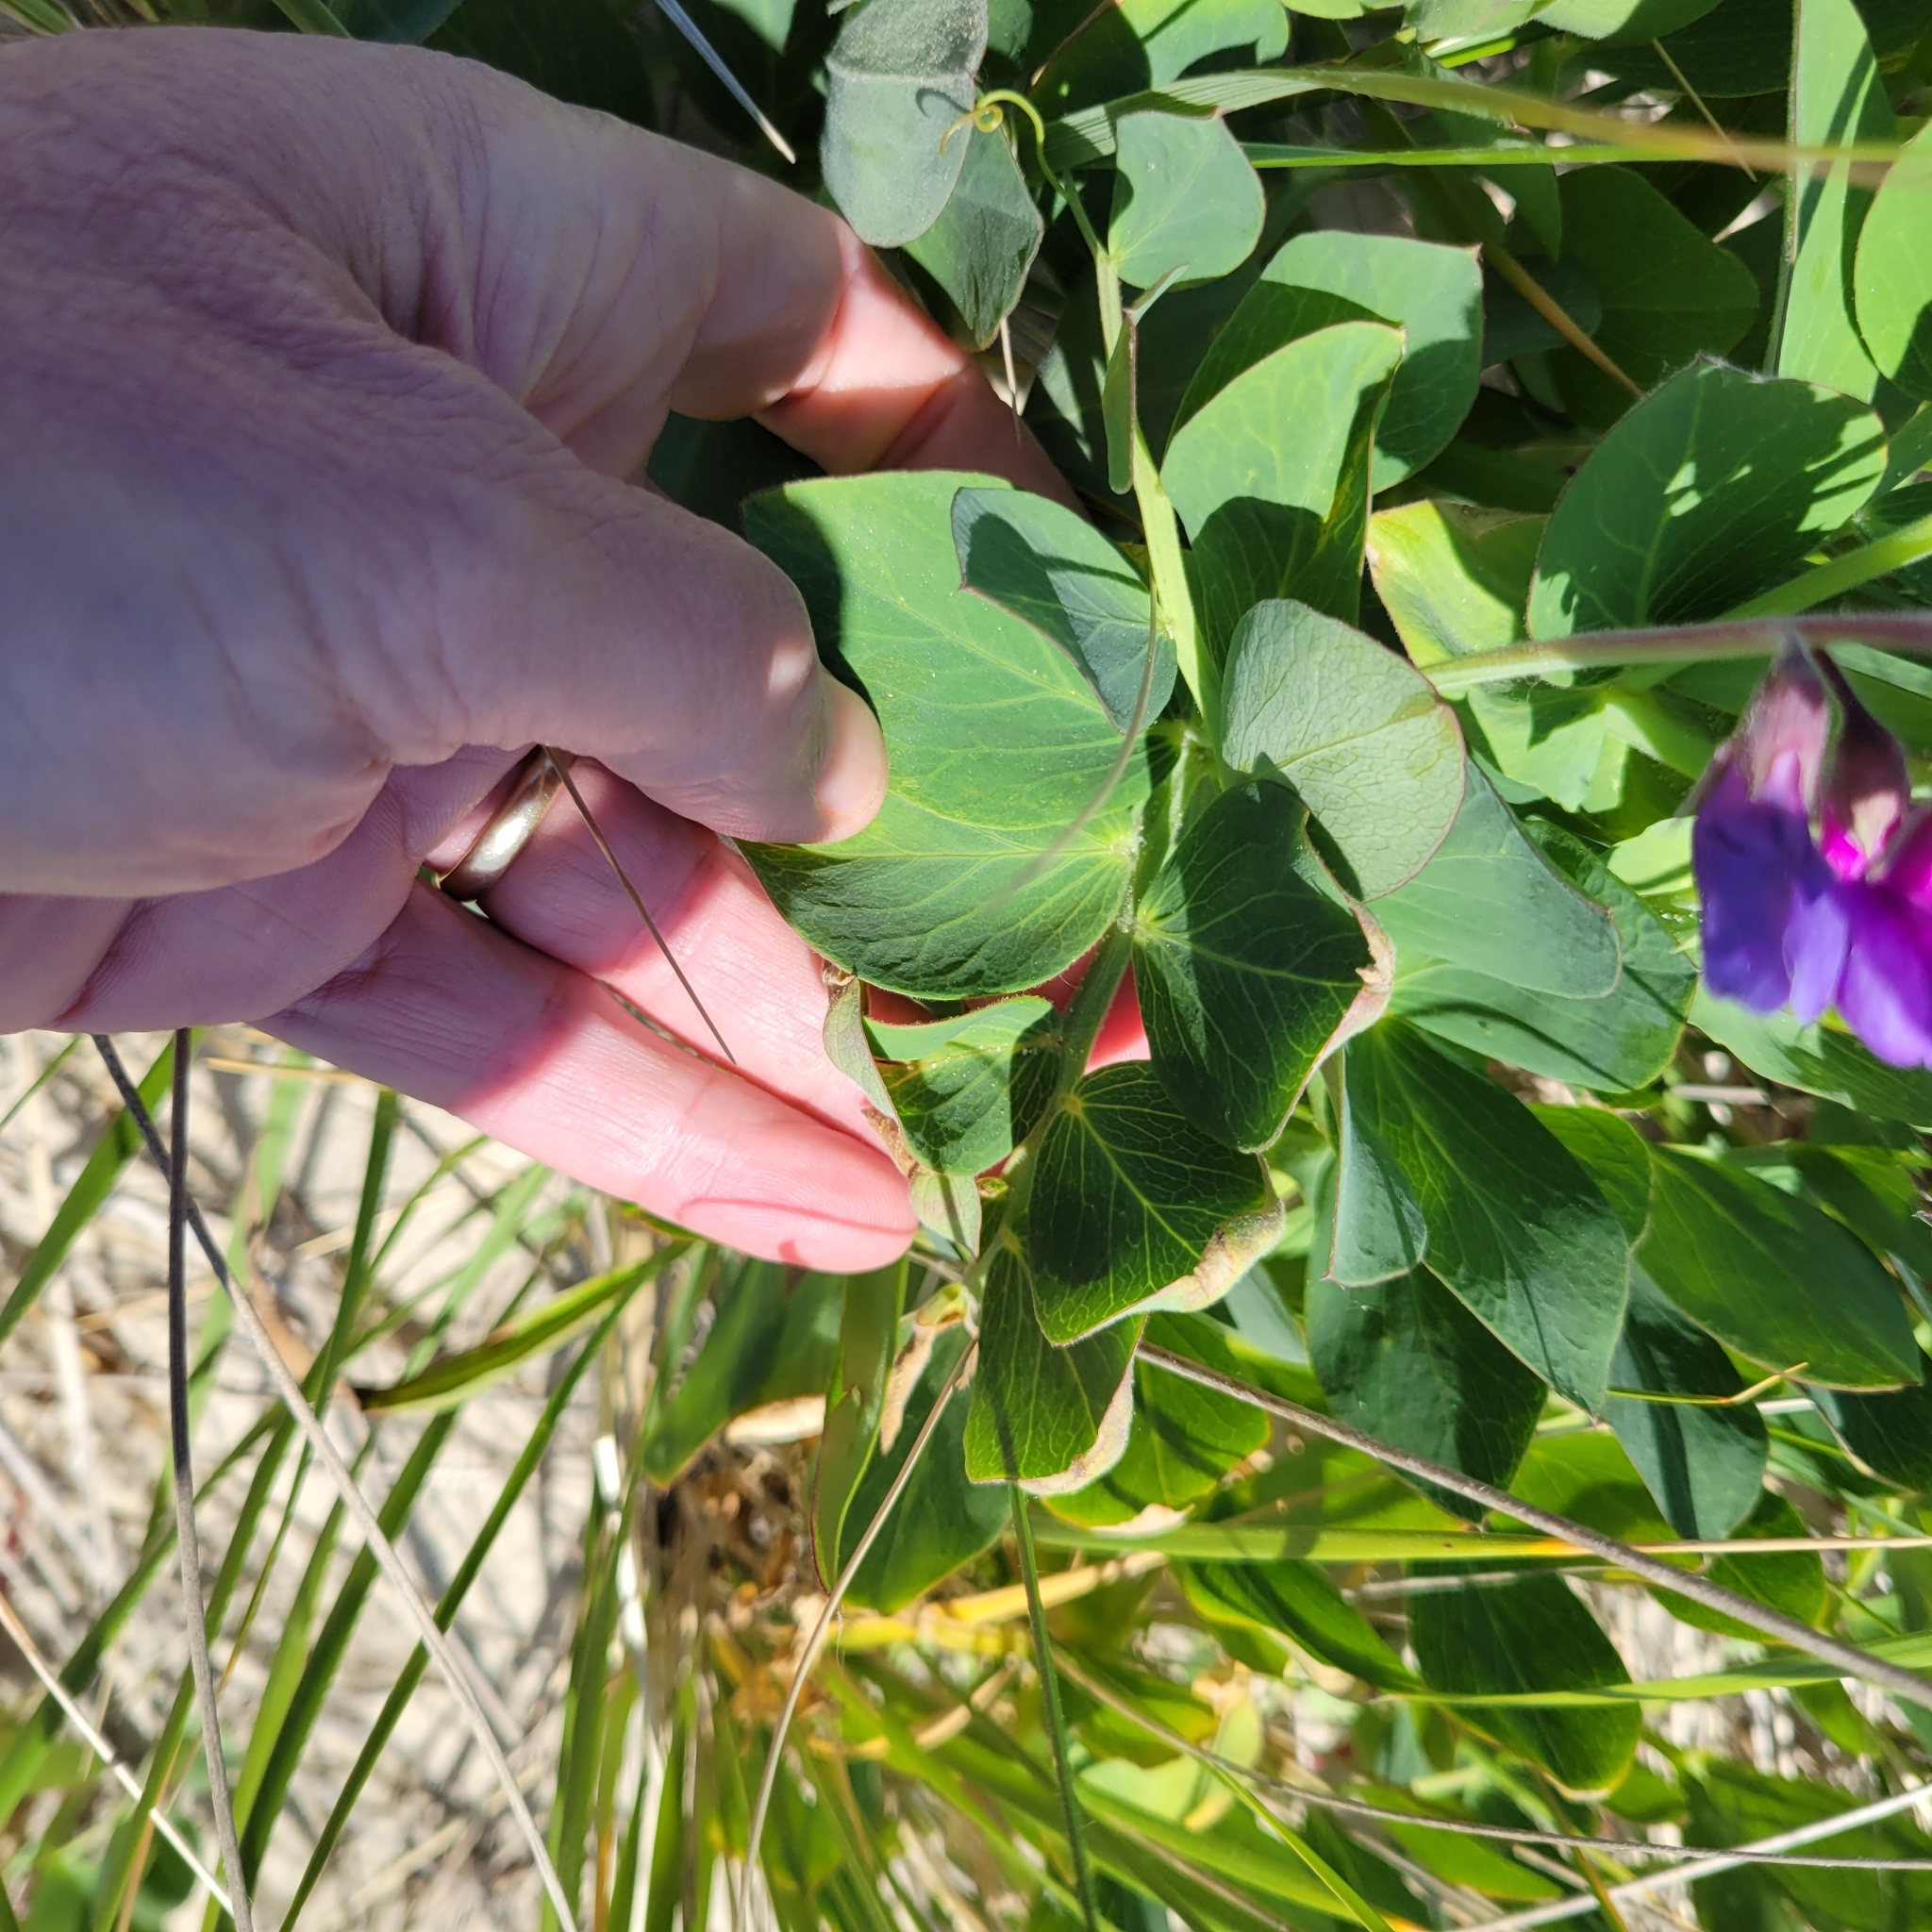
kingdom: Plantae
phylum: Tracheophyta
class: Magnoliopsida
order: Fabales
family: Fabaceae
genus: Lathyrus
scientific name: Lathyrus japonicus
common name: Sea pea
